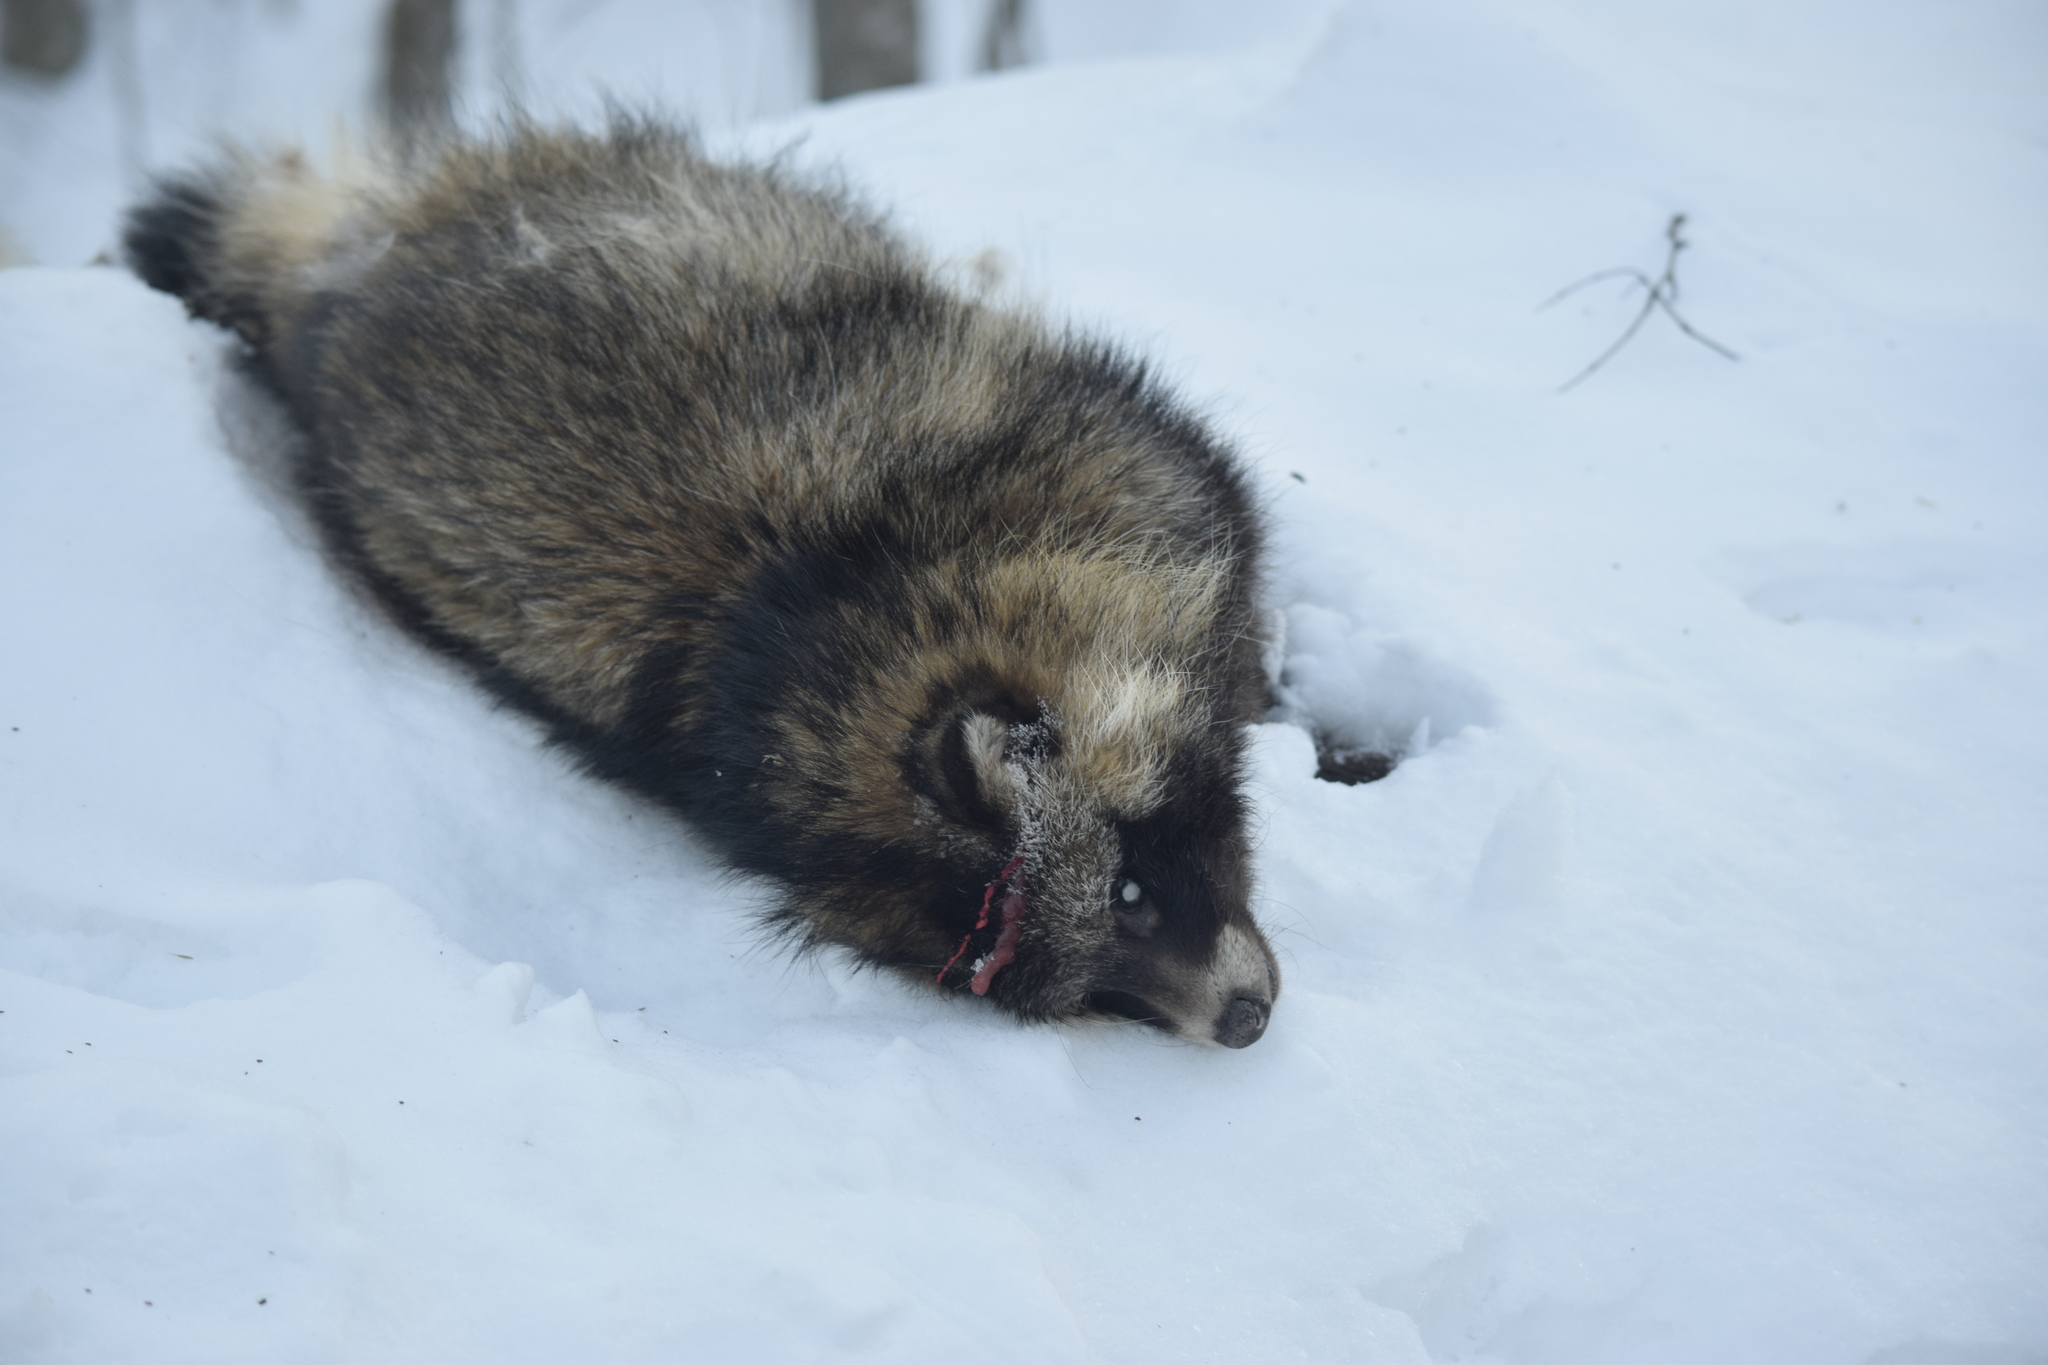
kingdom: Animalia
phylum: Chordata
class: Mammalia
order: Carnivora
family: Canidae
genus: Nyctereutes
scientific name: Nyctereutes procyonoides
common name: Raccoon dog
